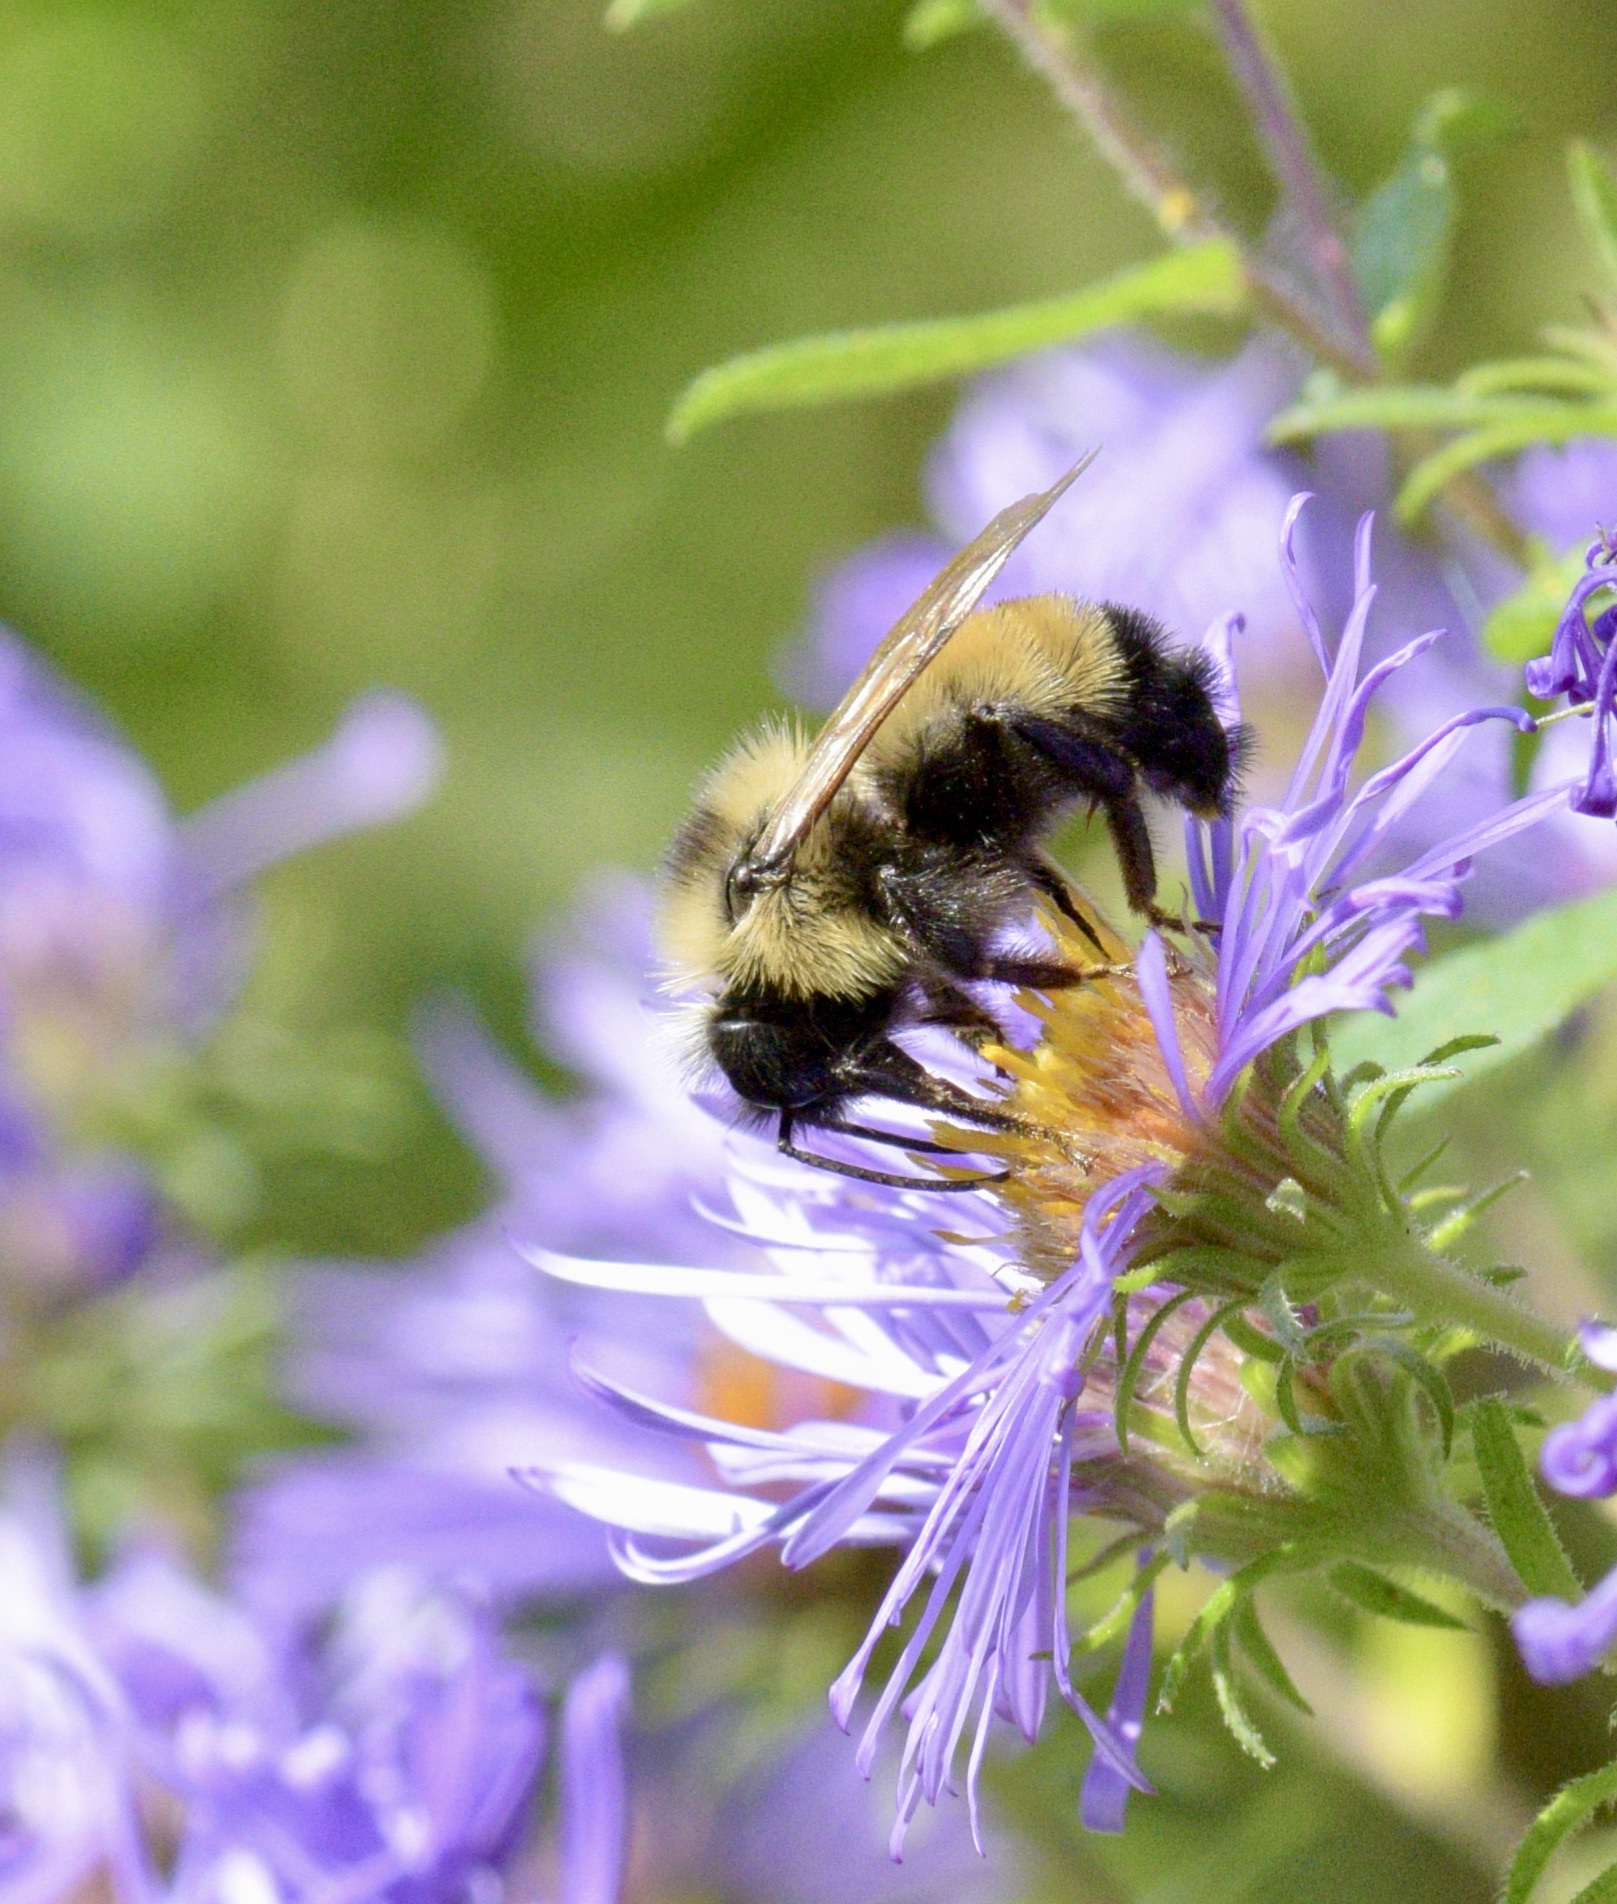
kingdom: Animalia
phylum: Arthropoda
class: Insecta
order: Hymenoptera
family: Apidae
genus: Bombus
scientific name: Bombus citrinus
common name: Lemon cuckoo bumble bee
